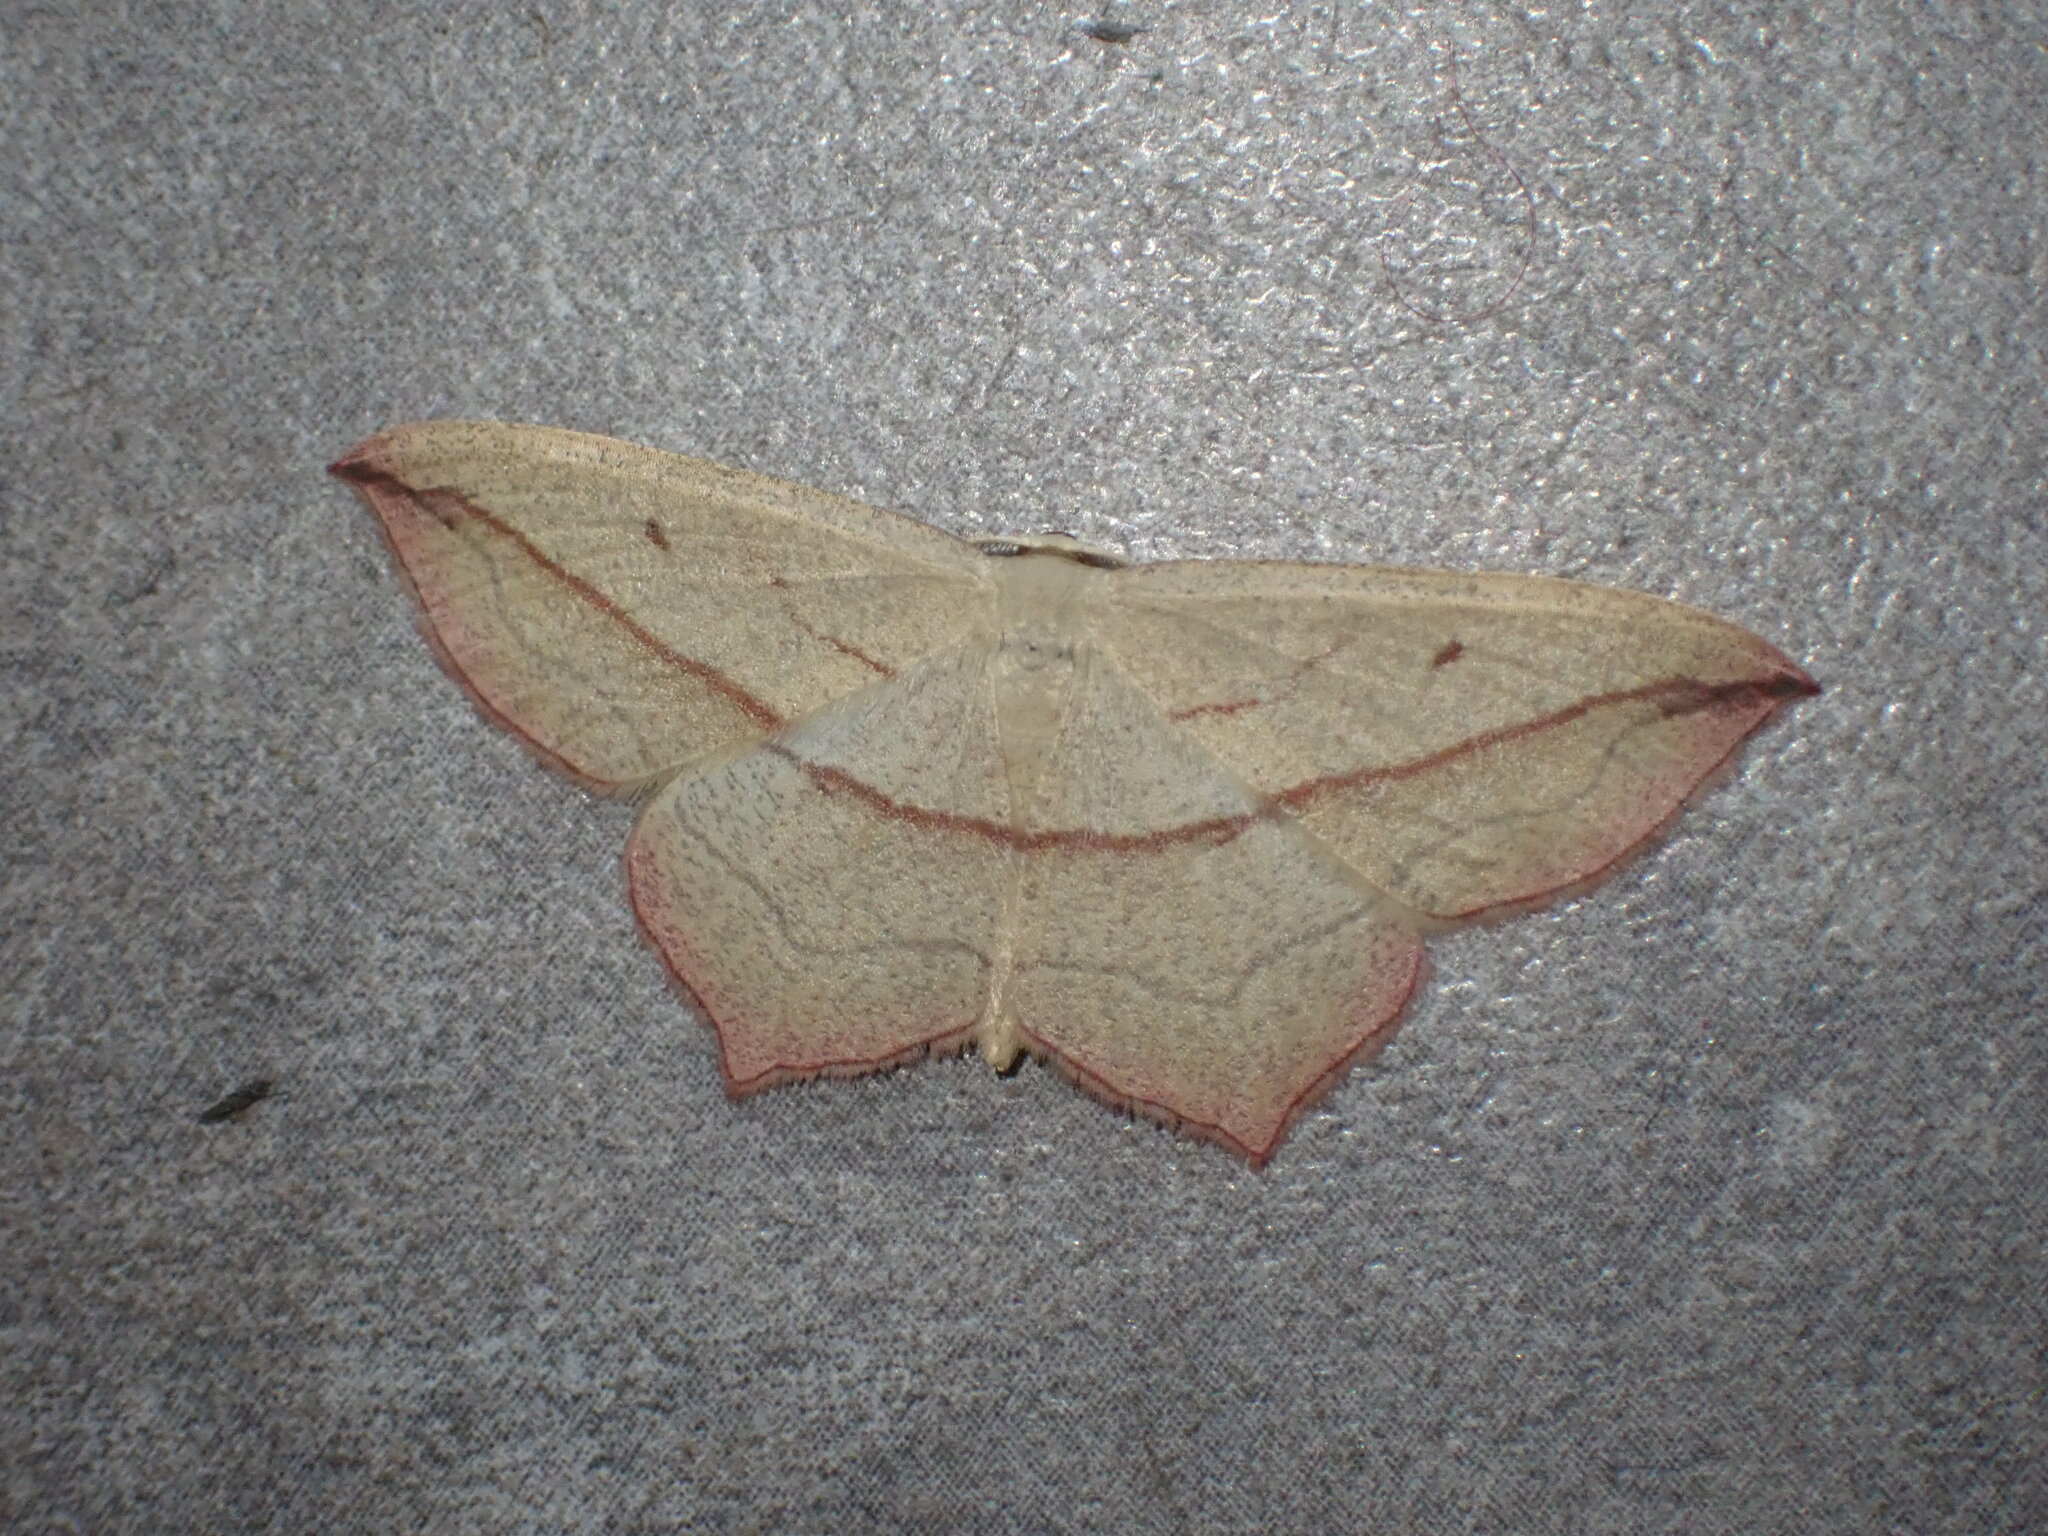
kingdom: Animalia
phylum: Arthropoda
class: Insecta
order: Lepidoptera
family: Geometridae
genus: Timandra
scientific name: Timandra comae
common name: Blood-vein
